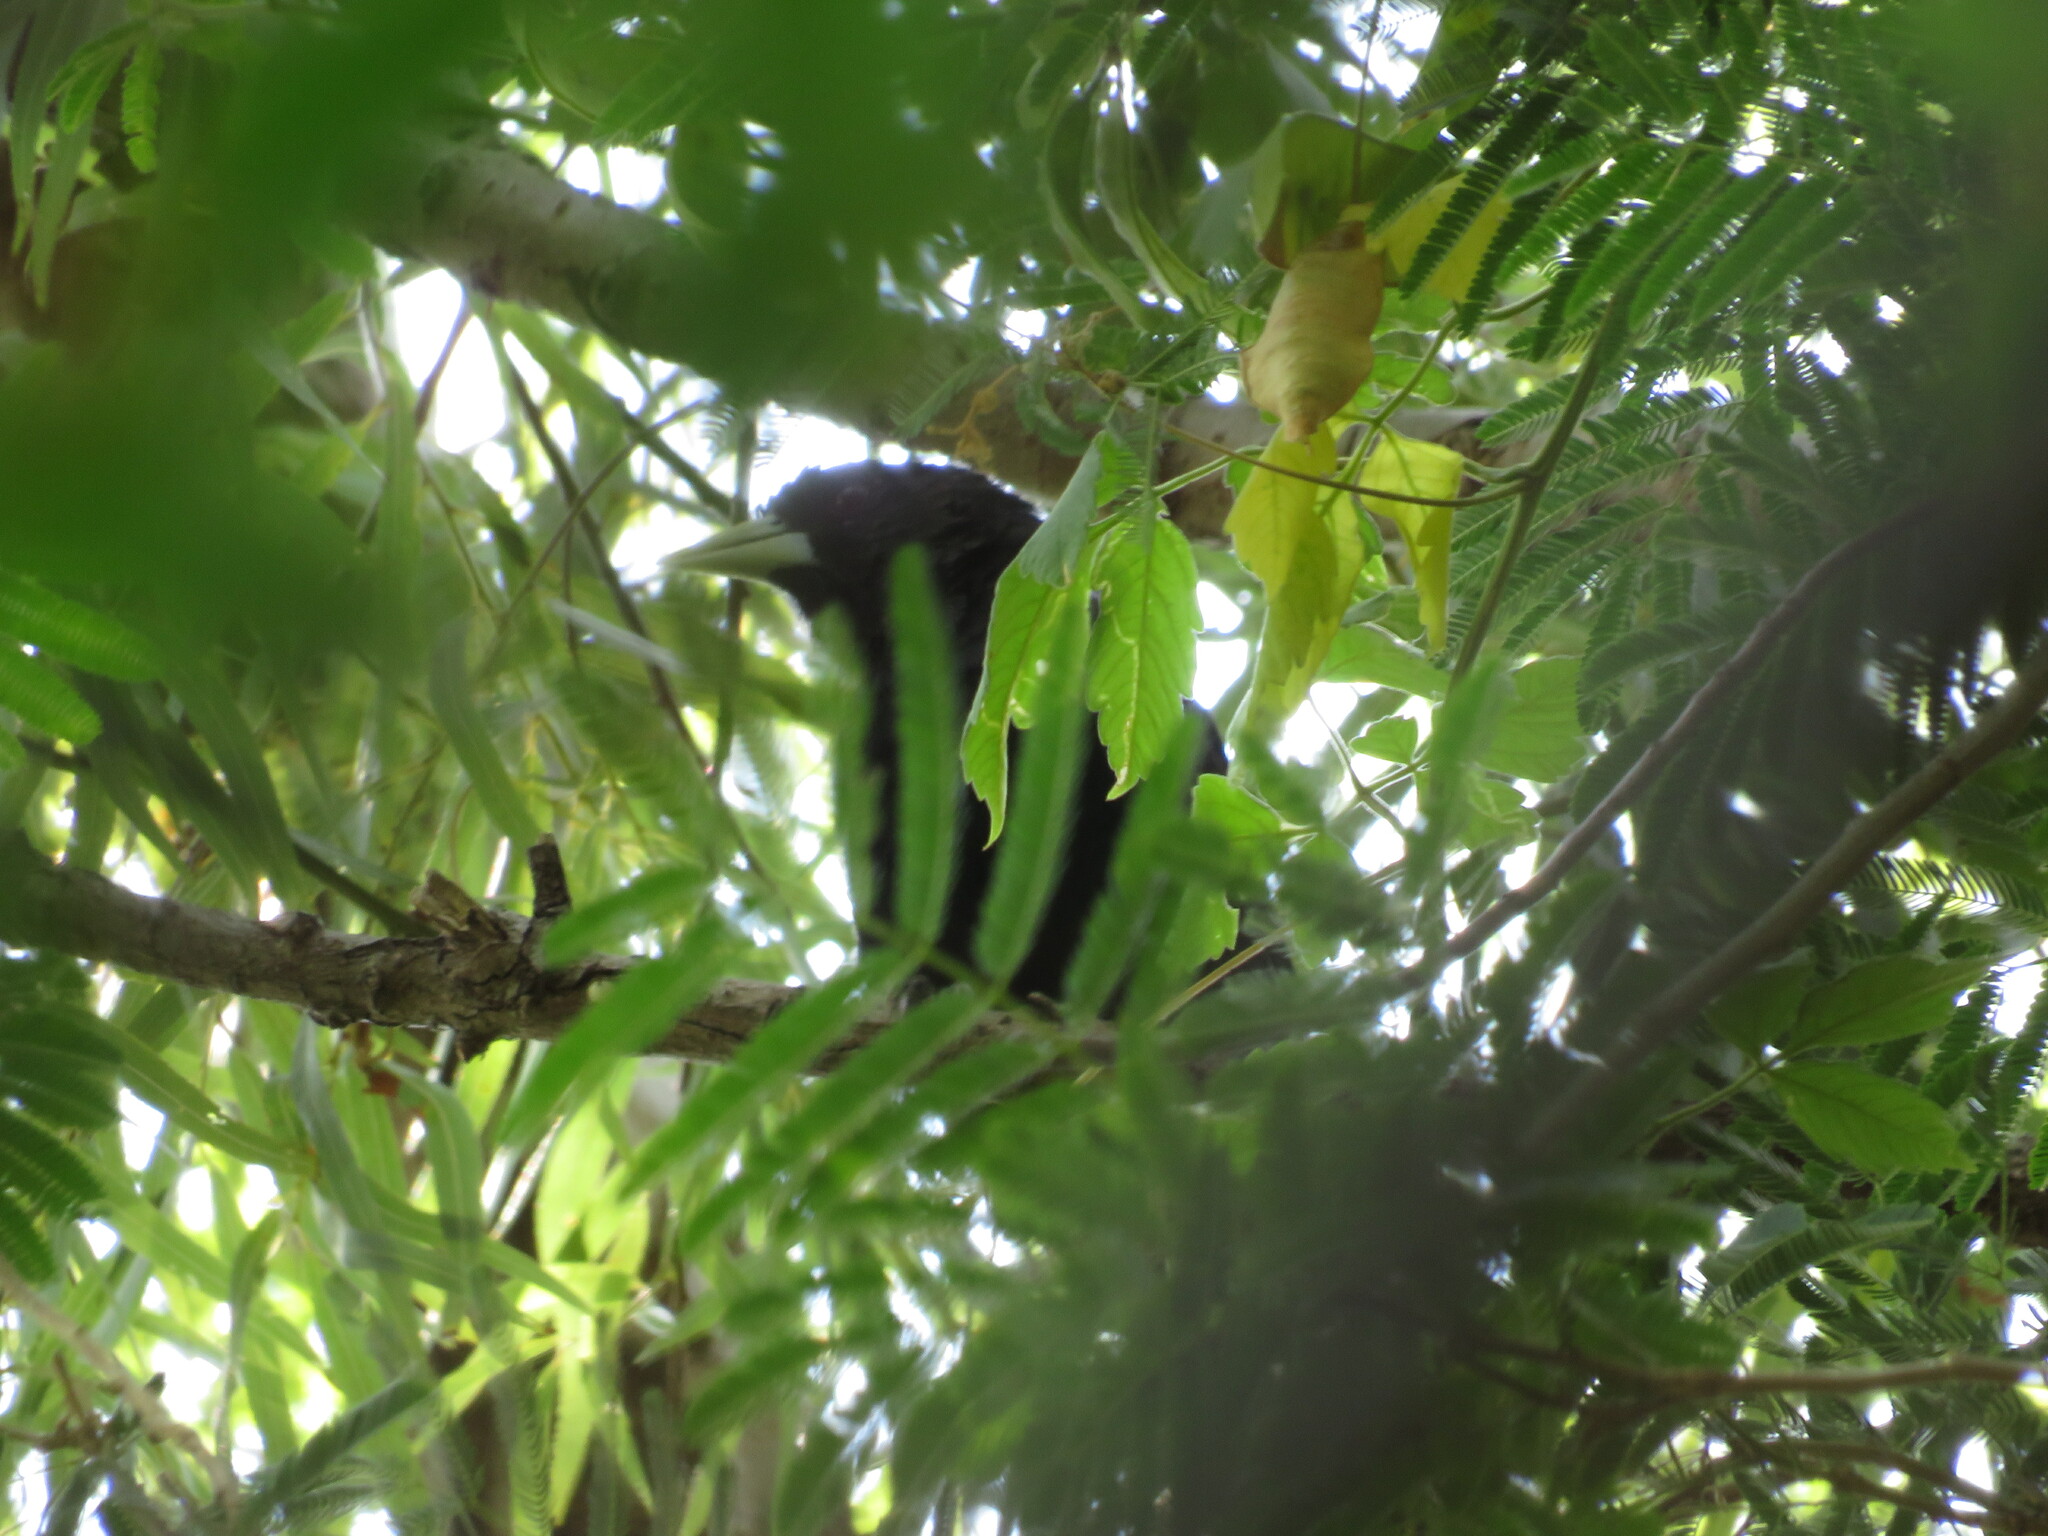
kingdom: Animalia
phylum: Chordata
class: Aves
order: Passeriformes
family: Icteridae
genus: Cacicus
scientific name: Cacicus solitarius
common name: Solitary cacique
